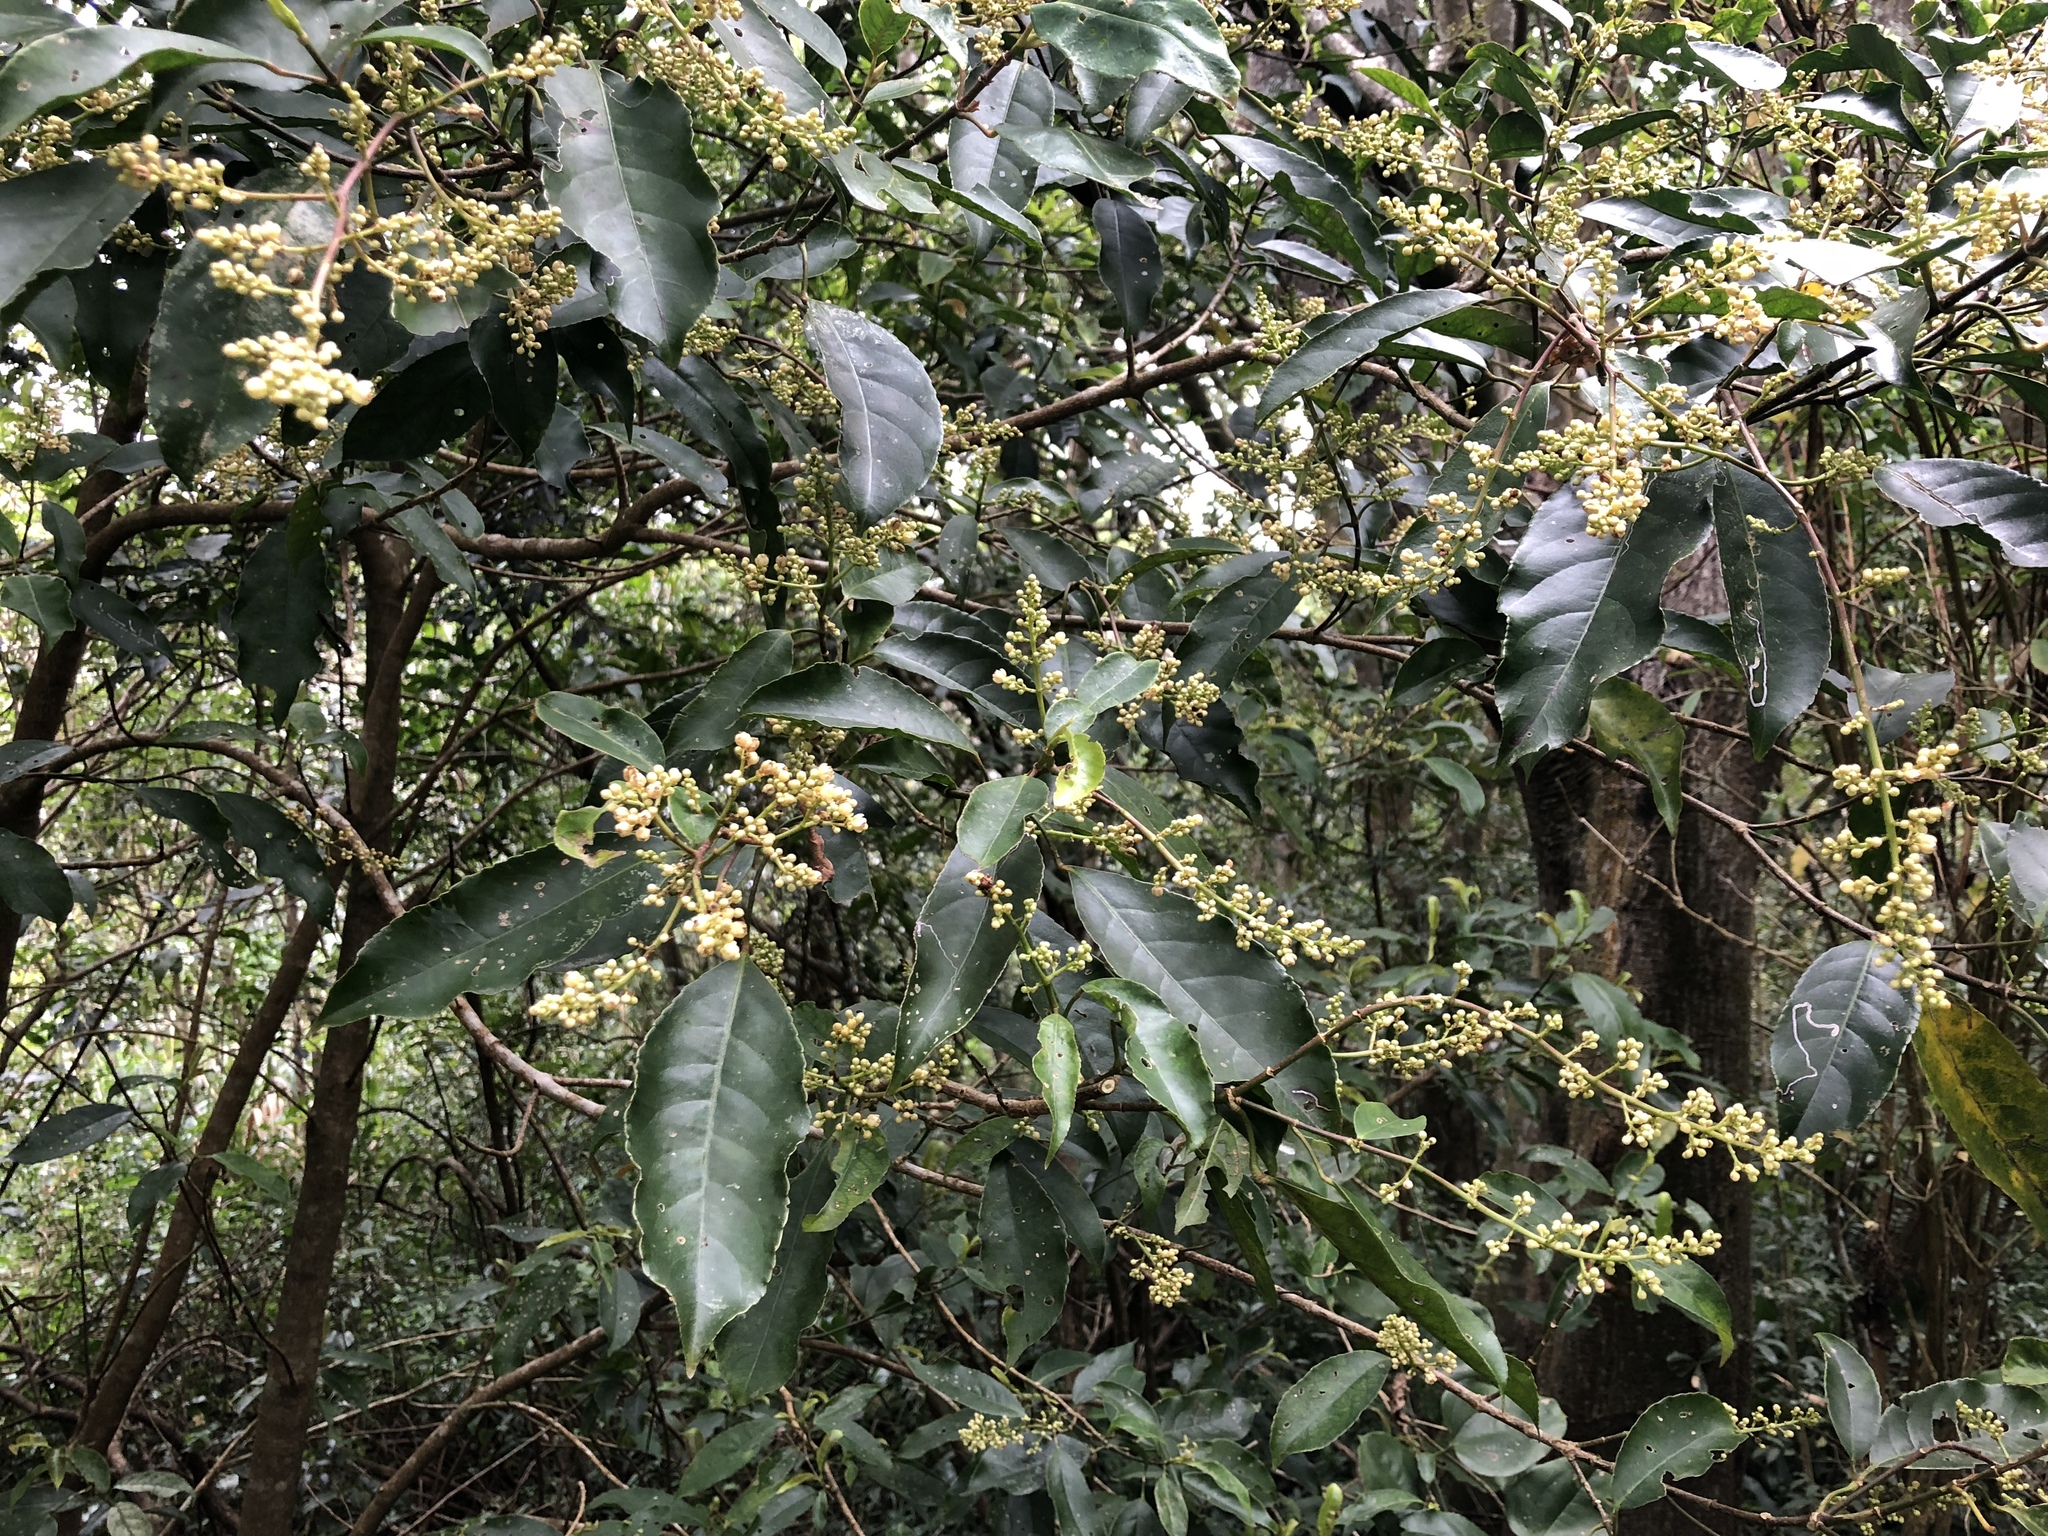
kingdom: Plantae
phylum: Tracheophyta
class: Magnoliopsida
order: Crossosomatales
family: Staphyleaceae
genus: Turpinia
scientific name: Turpinia formosana
